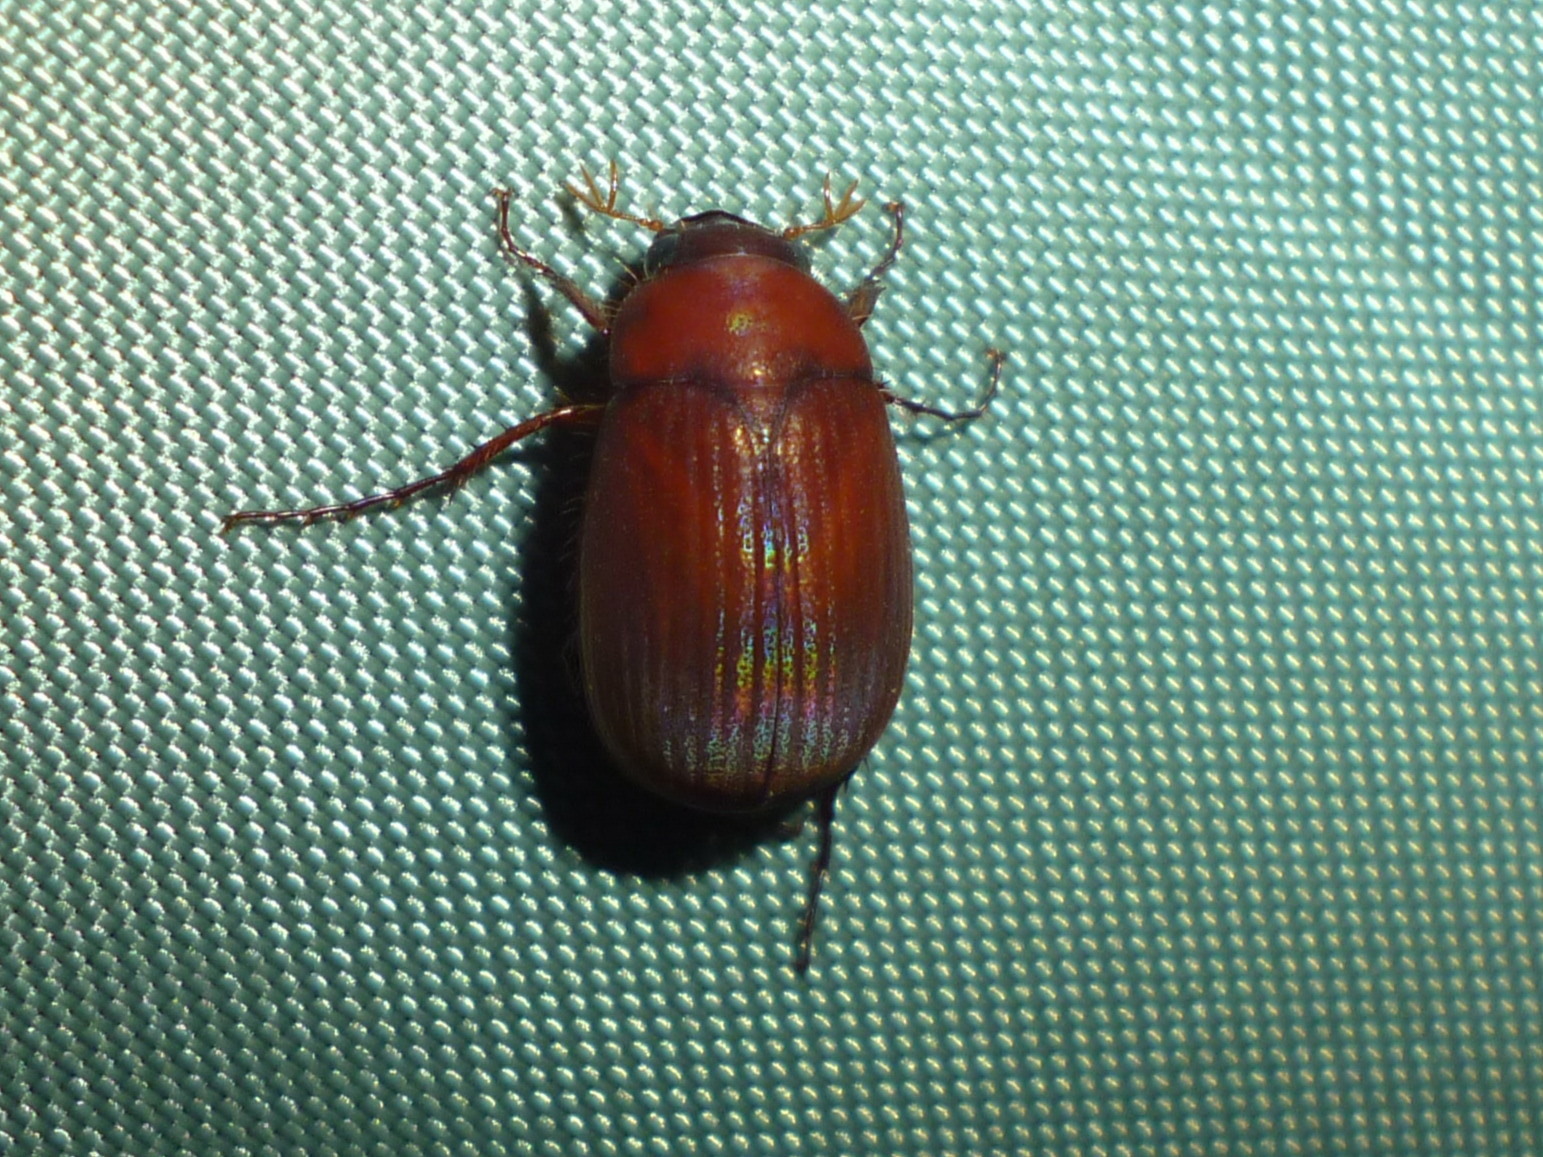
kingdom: Animalia
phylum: Arthropoda
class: Insecta
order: Coleoptera
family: Scarabaeidae
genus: Maladera
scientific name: Maladera formosae
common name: Asiatic garden beetle
